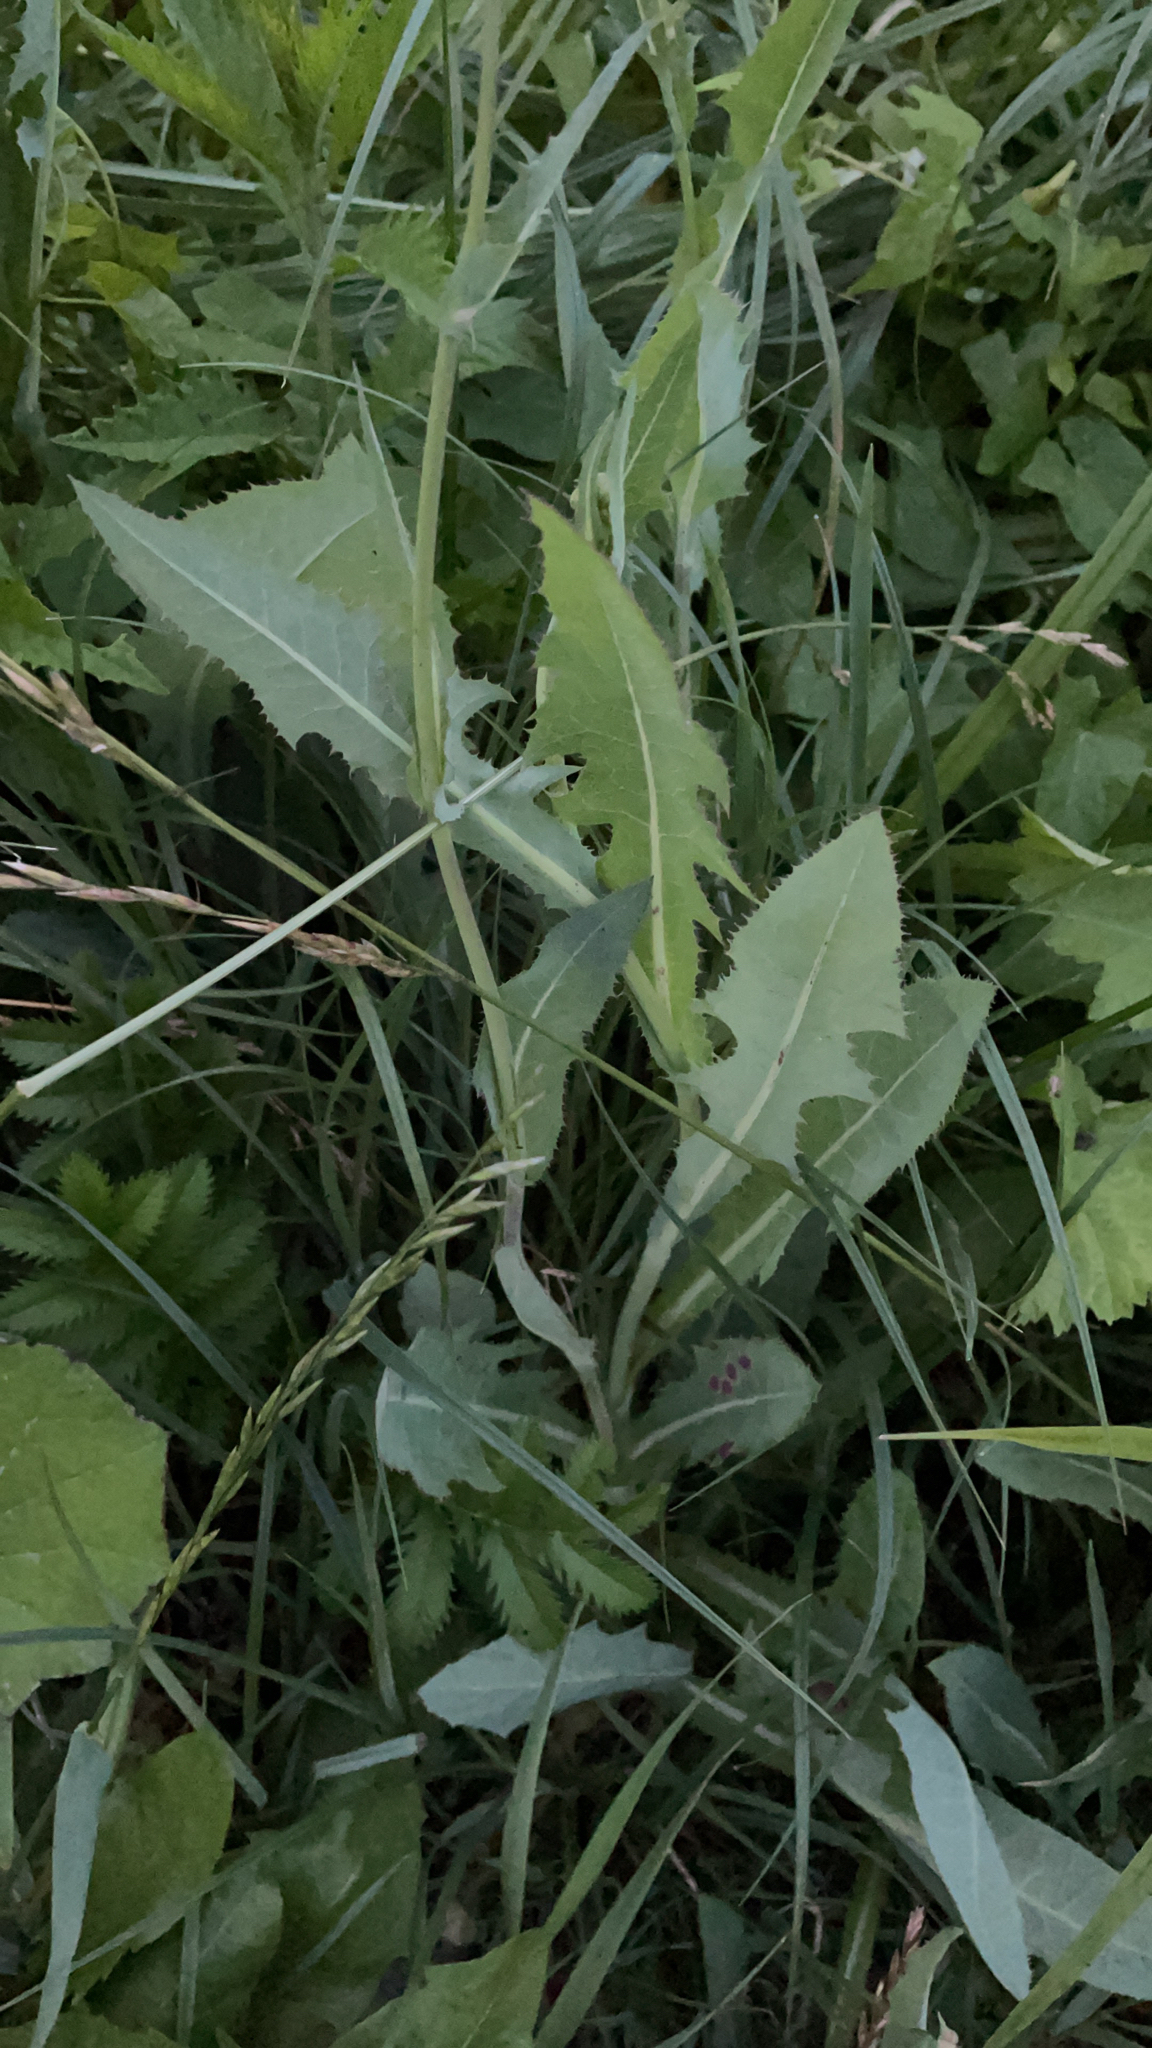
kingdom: Plantae
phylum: Tracheophyta
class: Magnoliopsida
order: Asterales
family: Asteraceae
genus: Sonchus
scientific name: Sonchus arvensis
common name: Perennial sow-thistle
